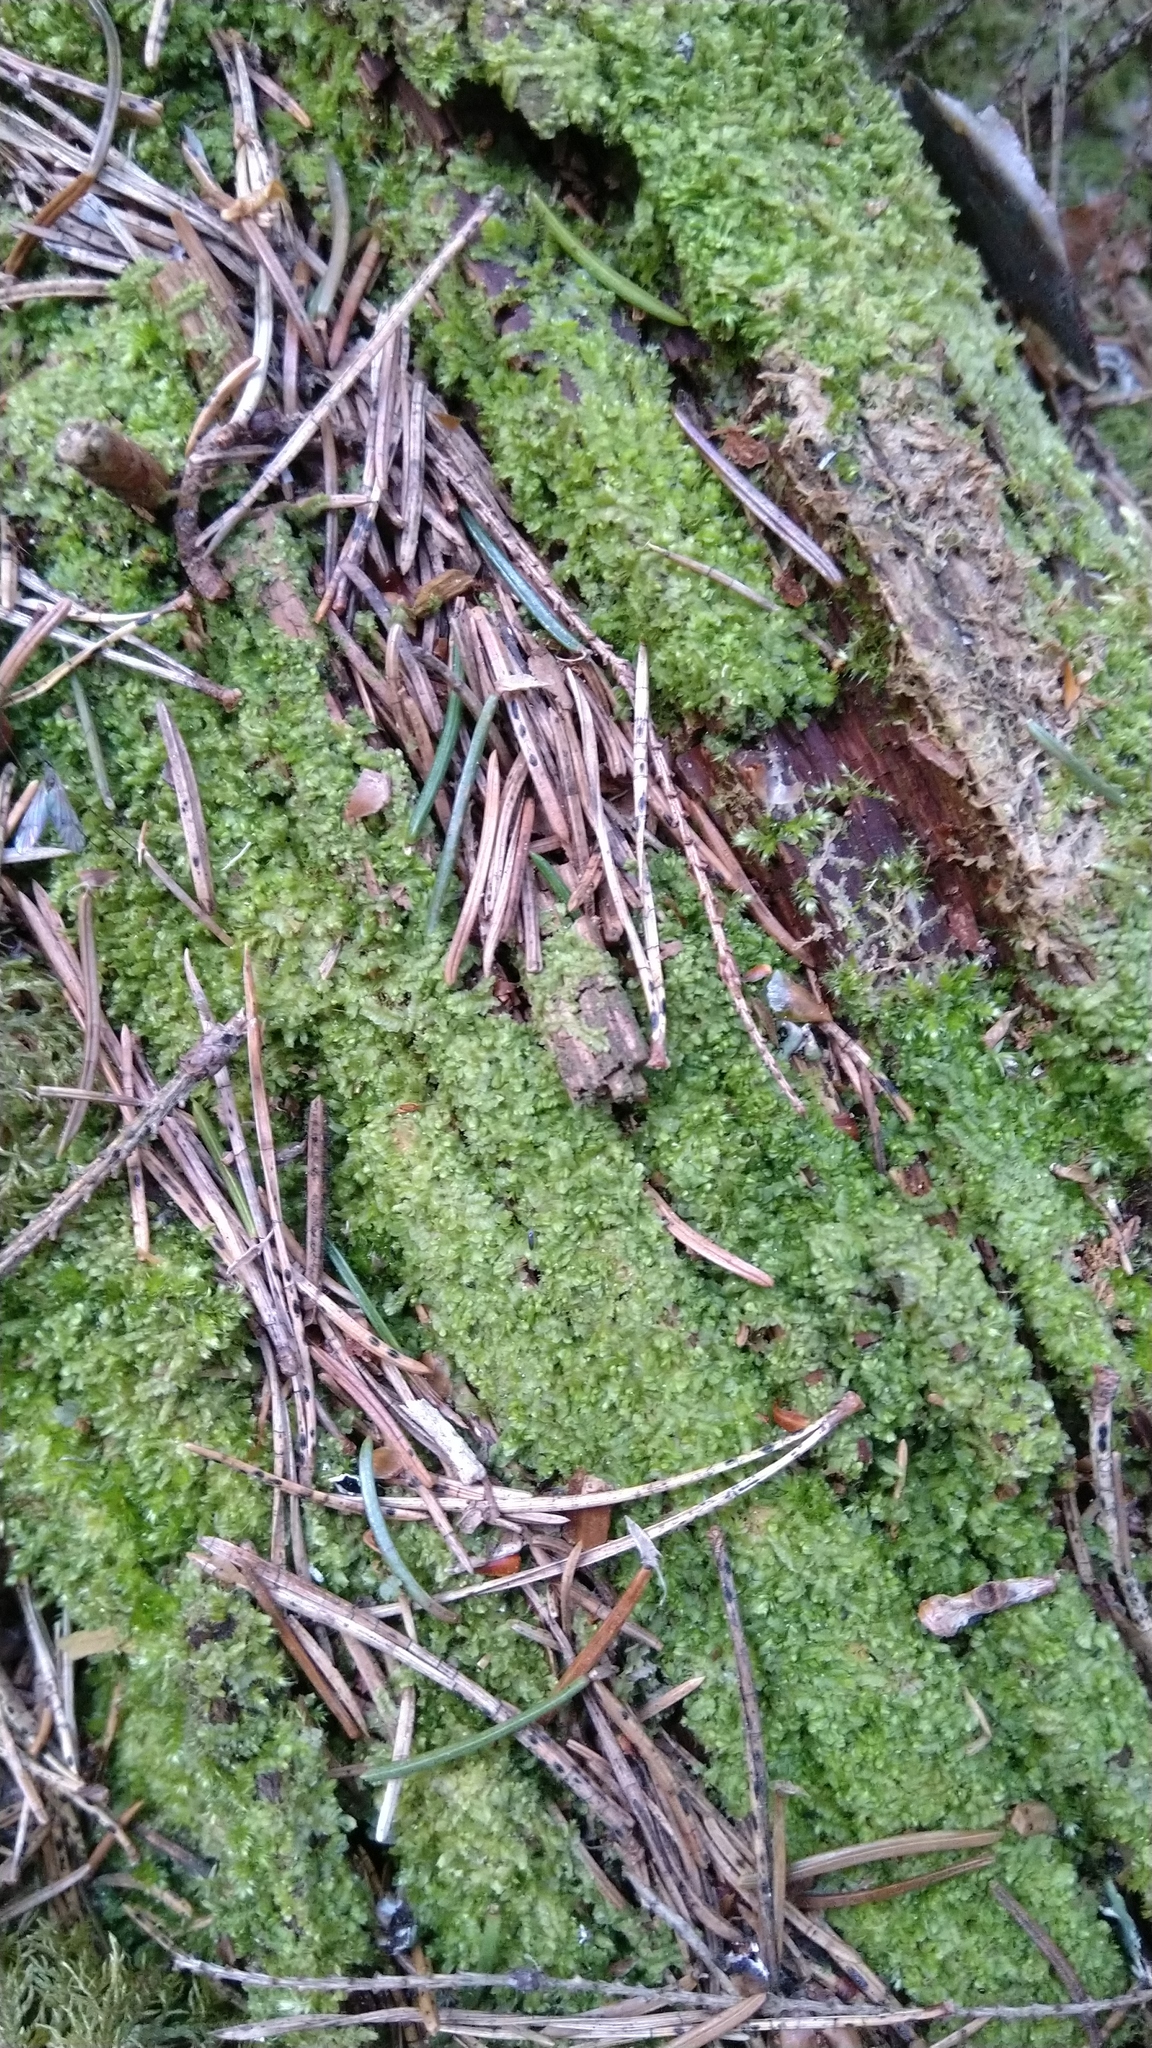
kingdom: Plantae
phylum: Marchantiophyta
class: Jungermanniopsida
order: Jungermanniales
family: Lophocoleaceae
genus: Lophocolea
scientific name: Lophocolea heterophylla
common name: Variable-leaved crestwort
